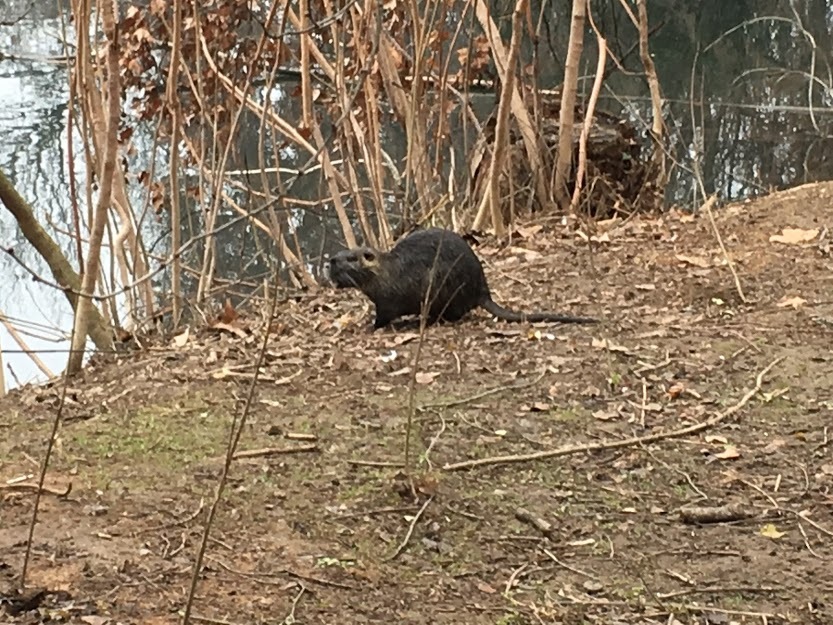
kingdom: Animalia
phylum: Chordata
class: Mammalia
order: Rodentia
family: Myocastoridae
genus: Myocastor
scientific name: Myocastor coypus
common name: Coypu
